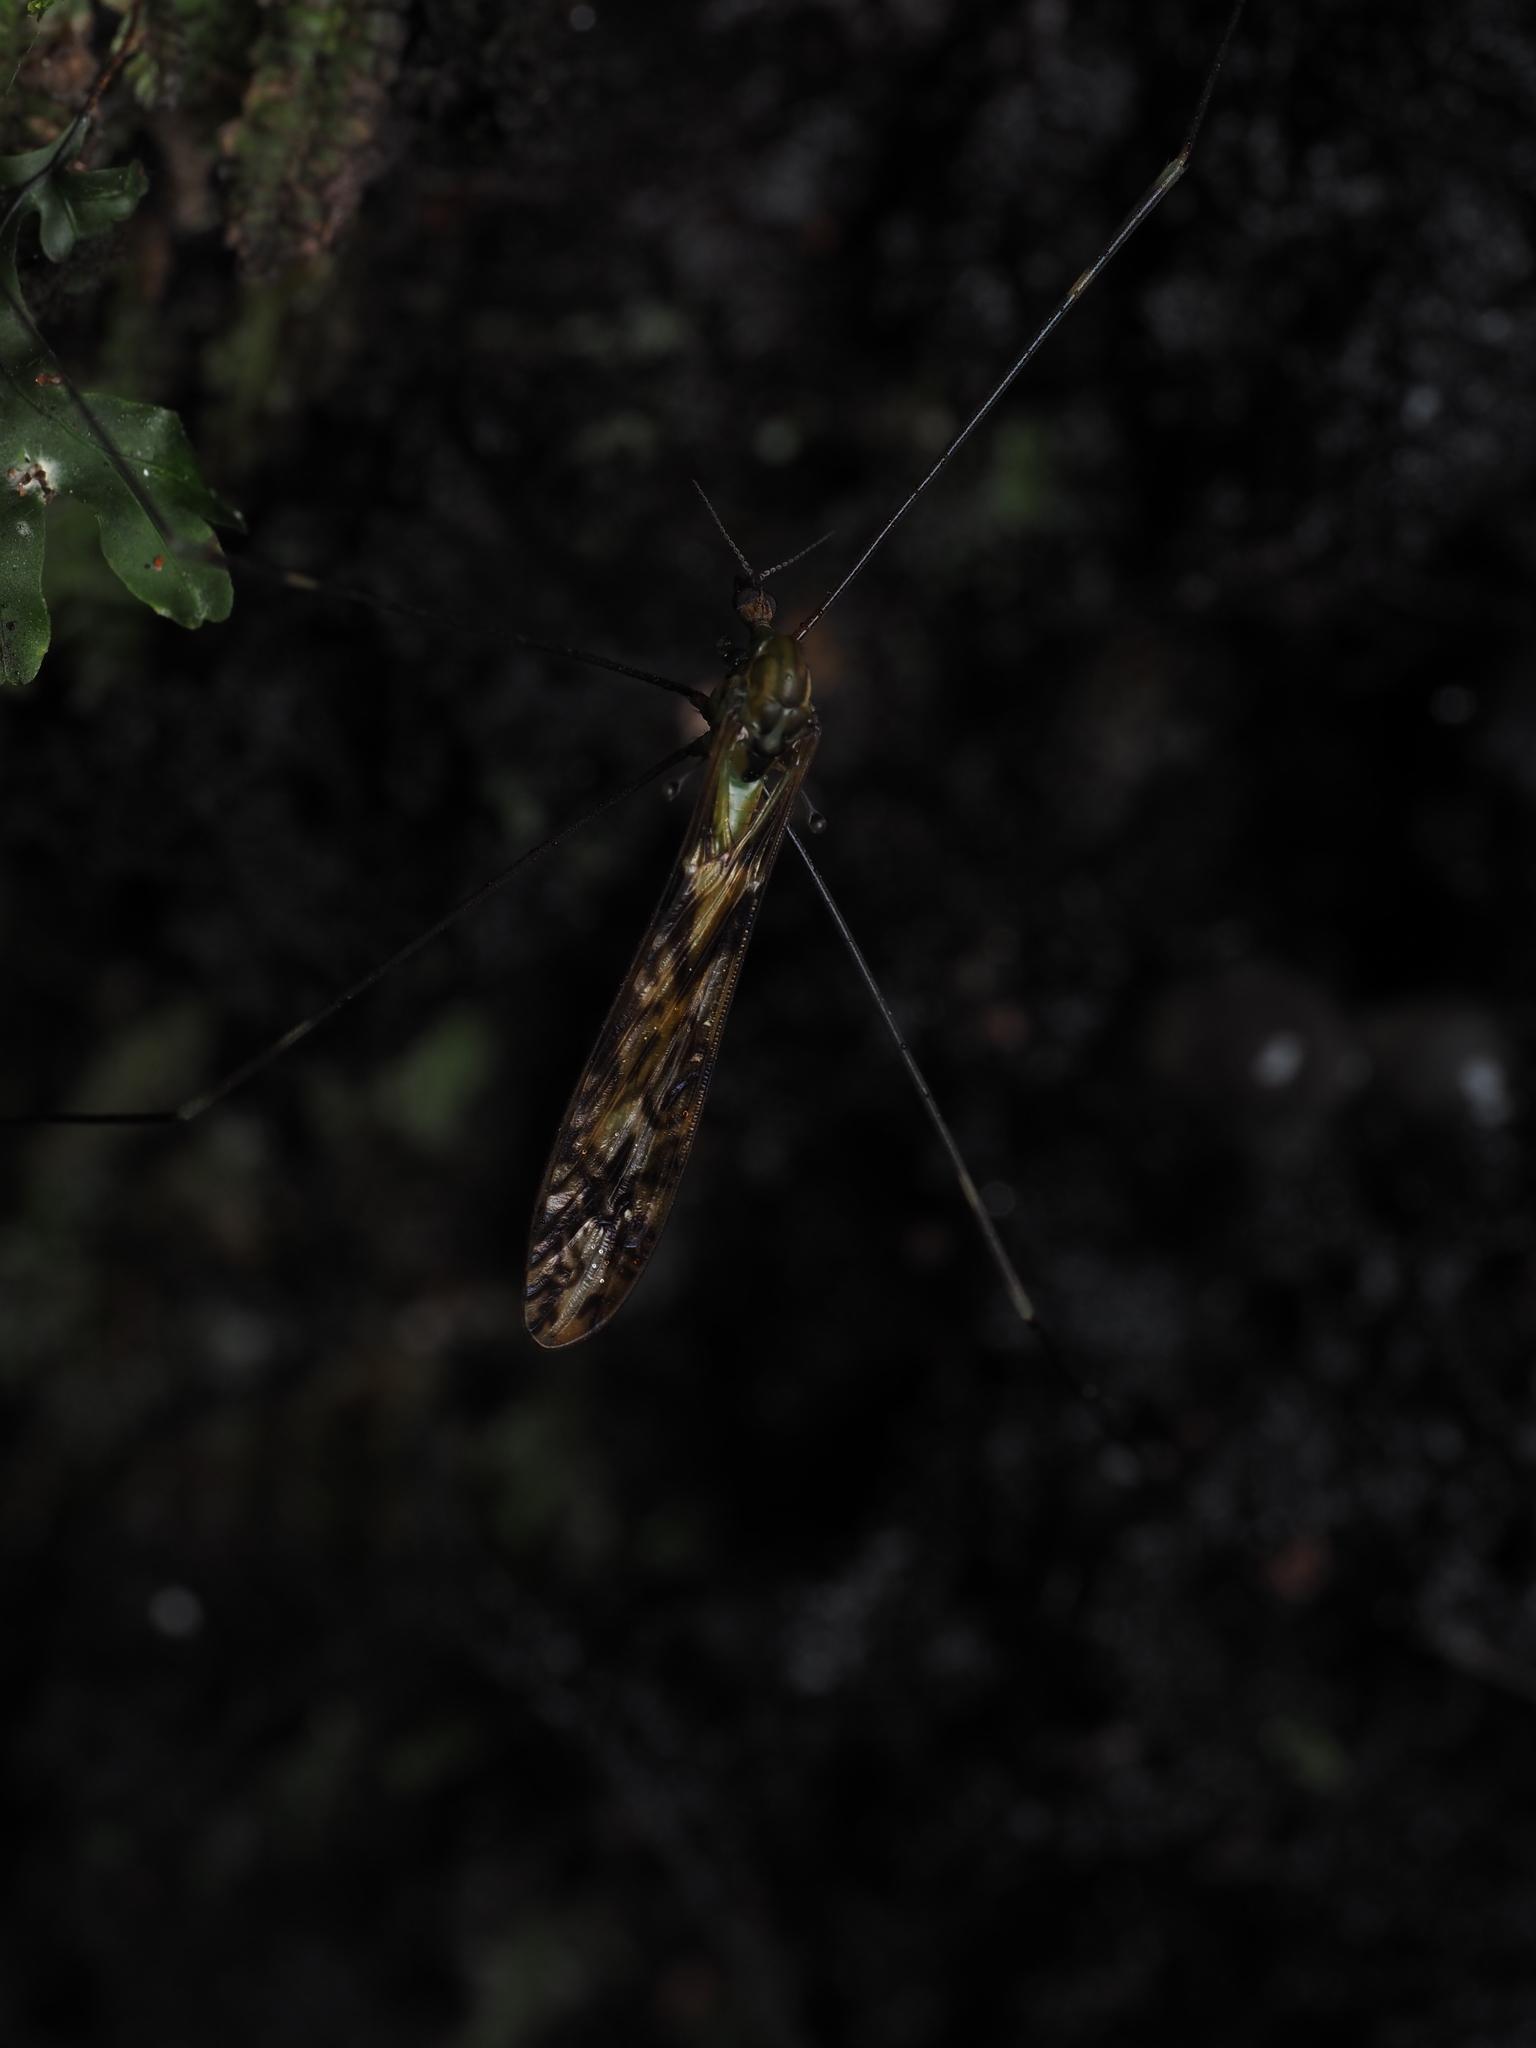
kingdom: Animalia
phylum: Arthropoda
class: Insecta
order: Diptera
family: Limoniidae
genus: Discobola
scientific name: Discobola tessellata
